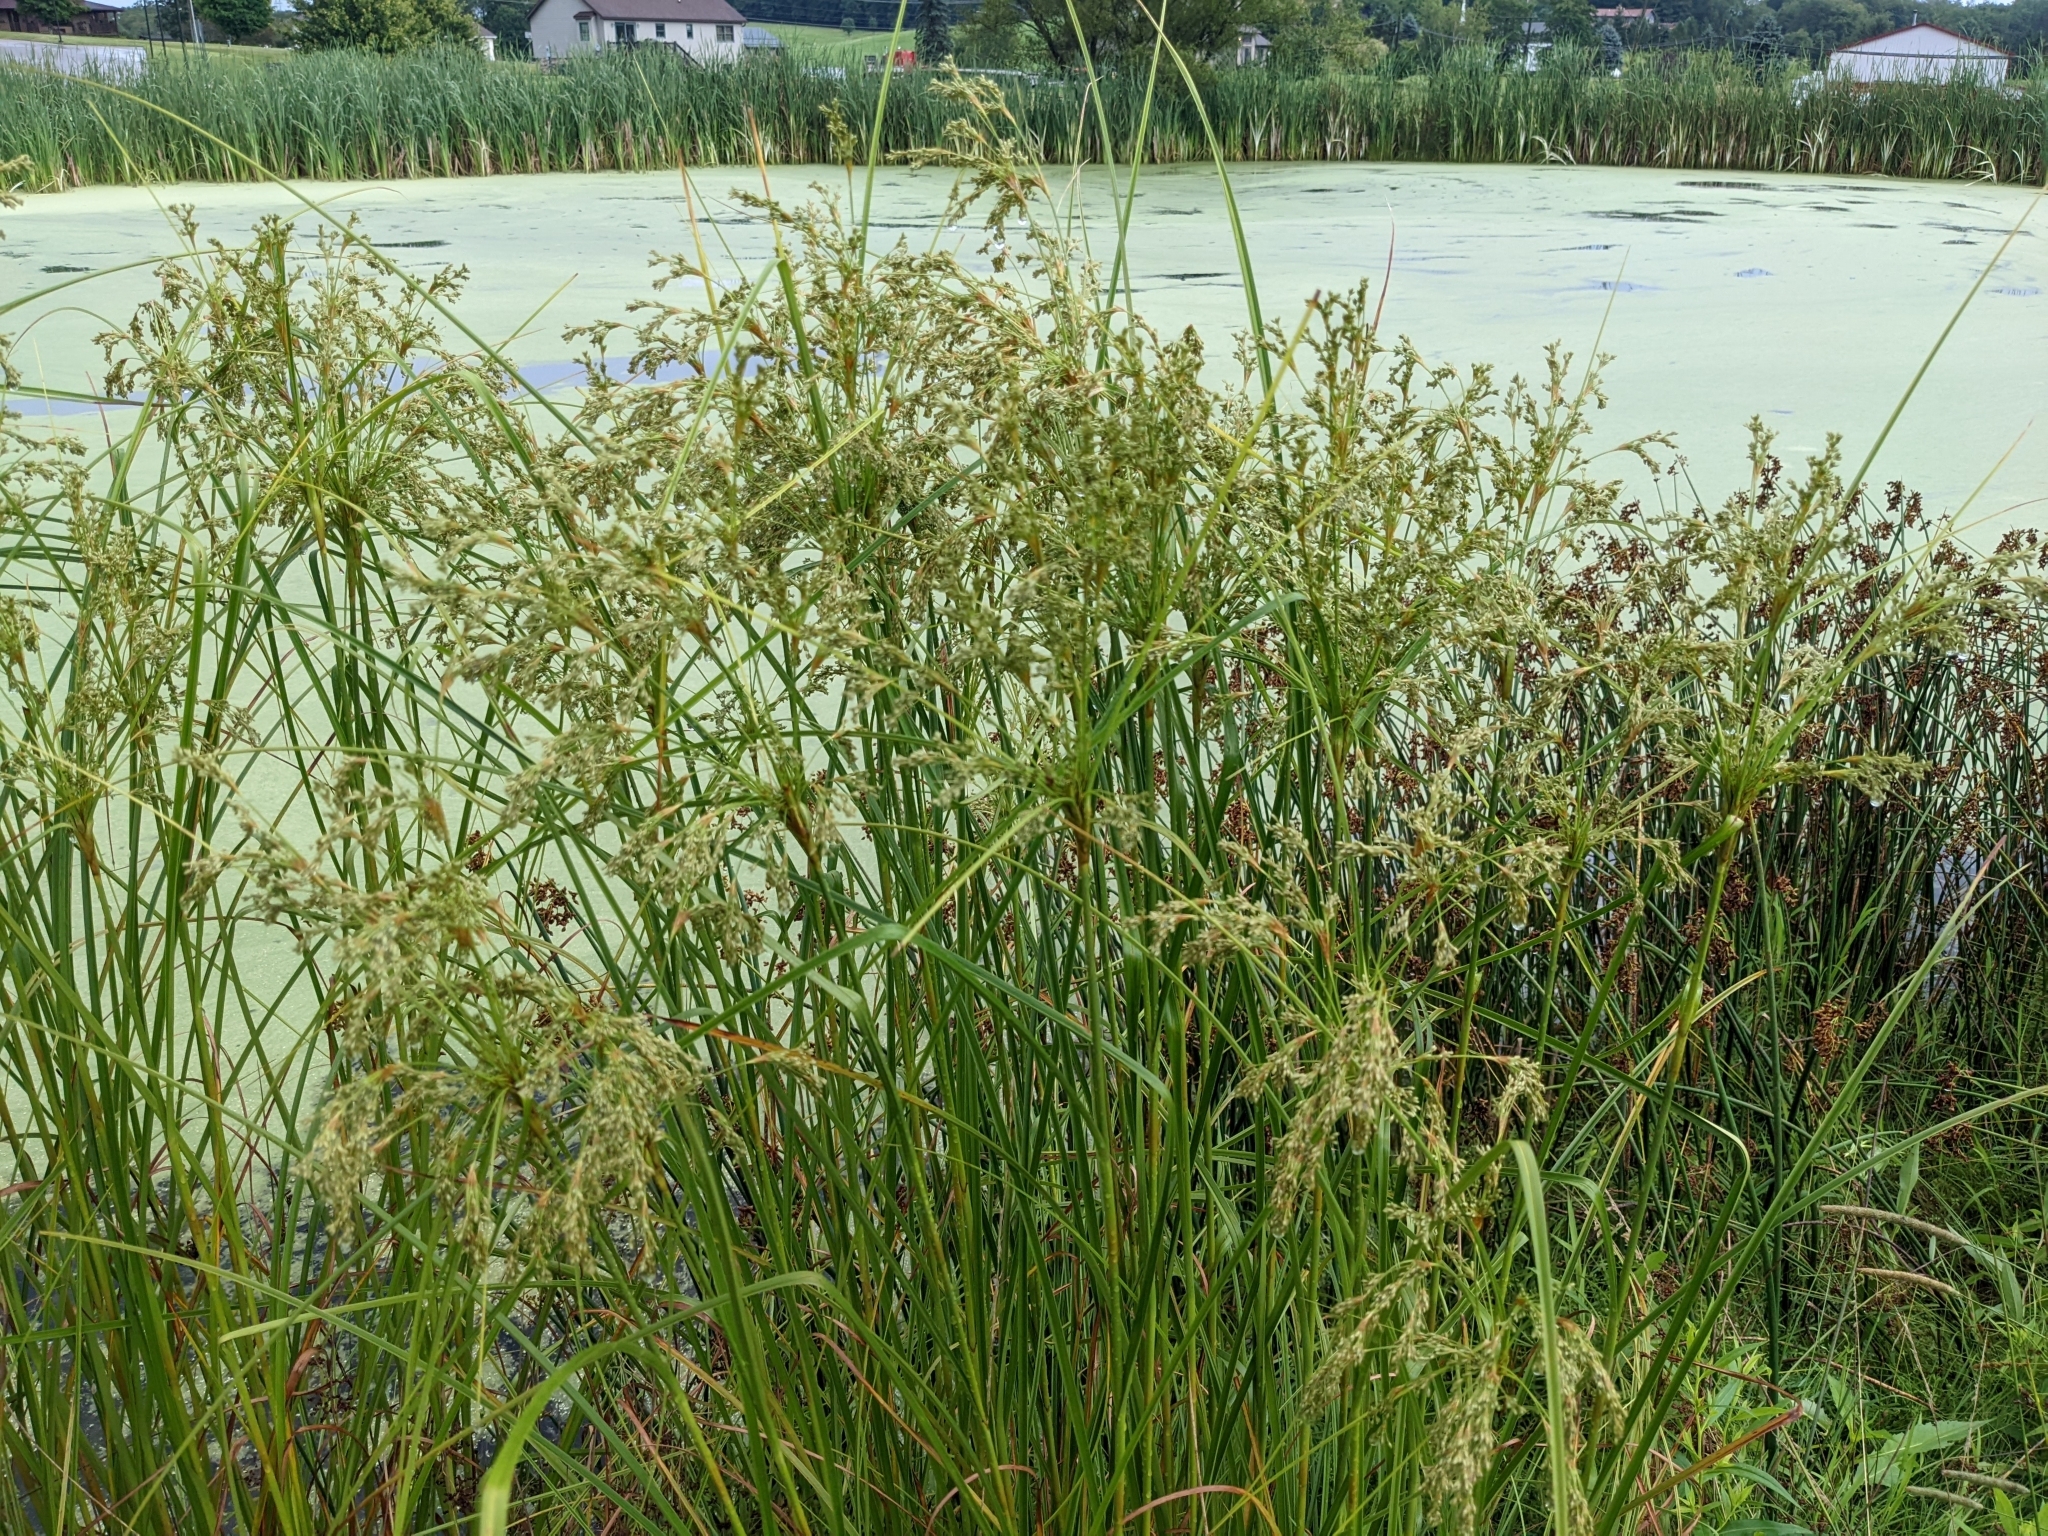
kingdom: Plantae
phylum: Tracheophyta
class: Liliopsida
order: Poales
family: Cyperaceae
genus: Scirpus
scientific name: Scirpus cyperinus
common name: Black-sheathed bulrush
